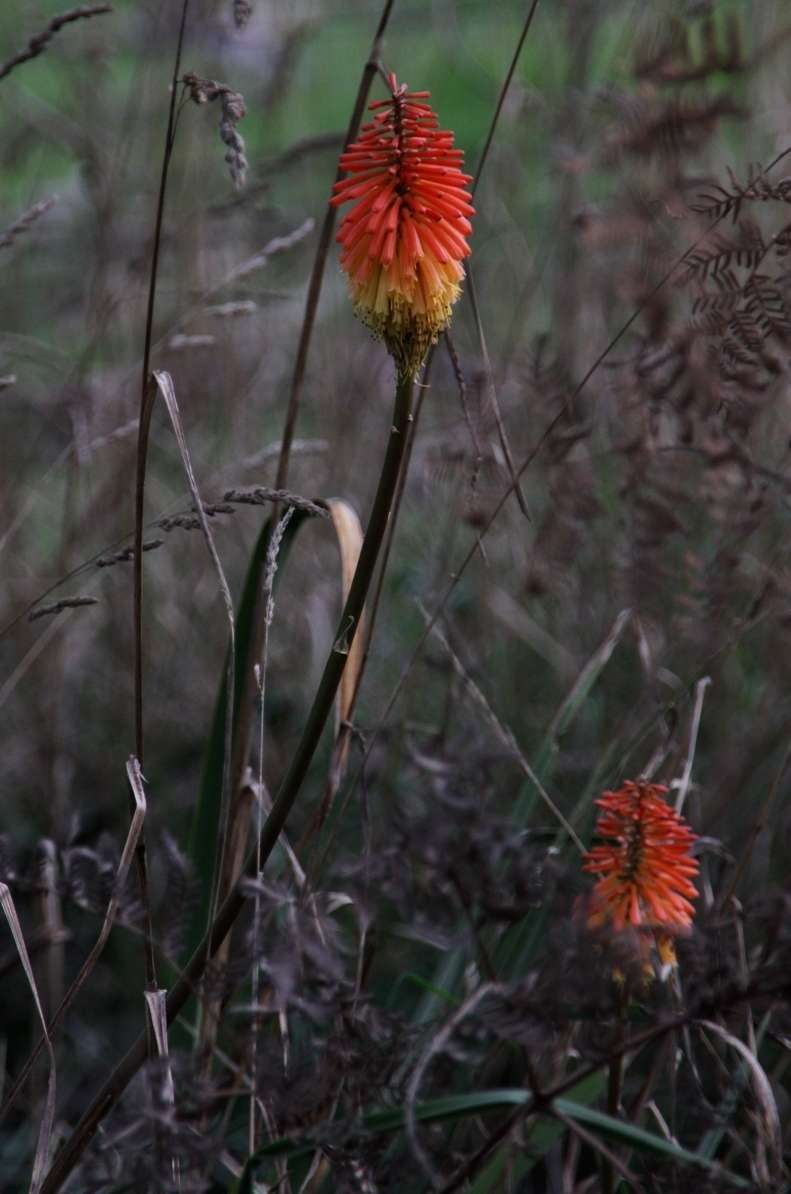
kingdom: Plantae
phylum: Tracheophyta
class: Liliopsida
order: Asparagales
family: Asphodelaceae
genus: Kniphofia
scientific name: Kniphofia uvaria
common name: Red-hot-poker
